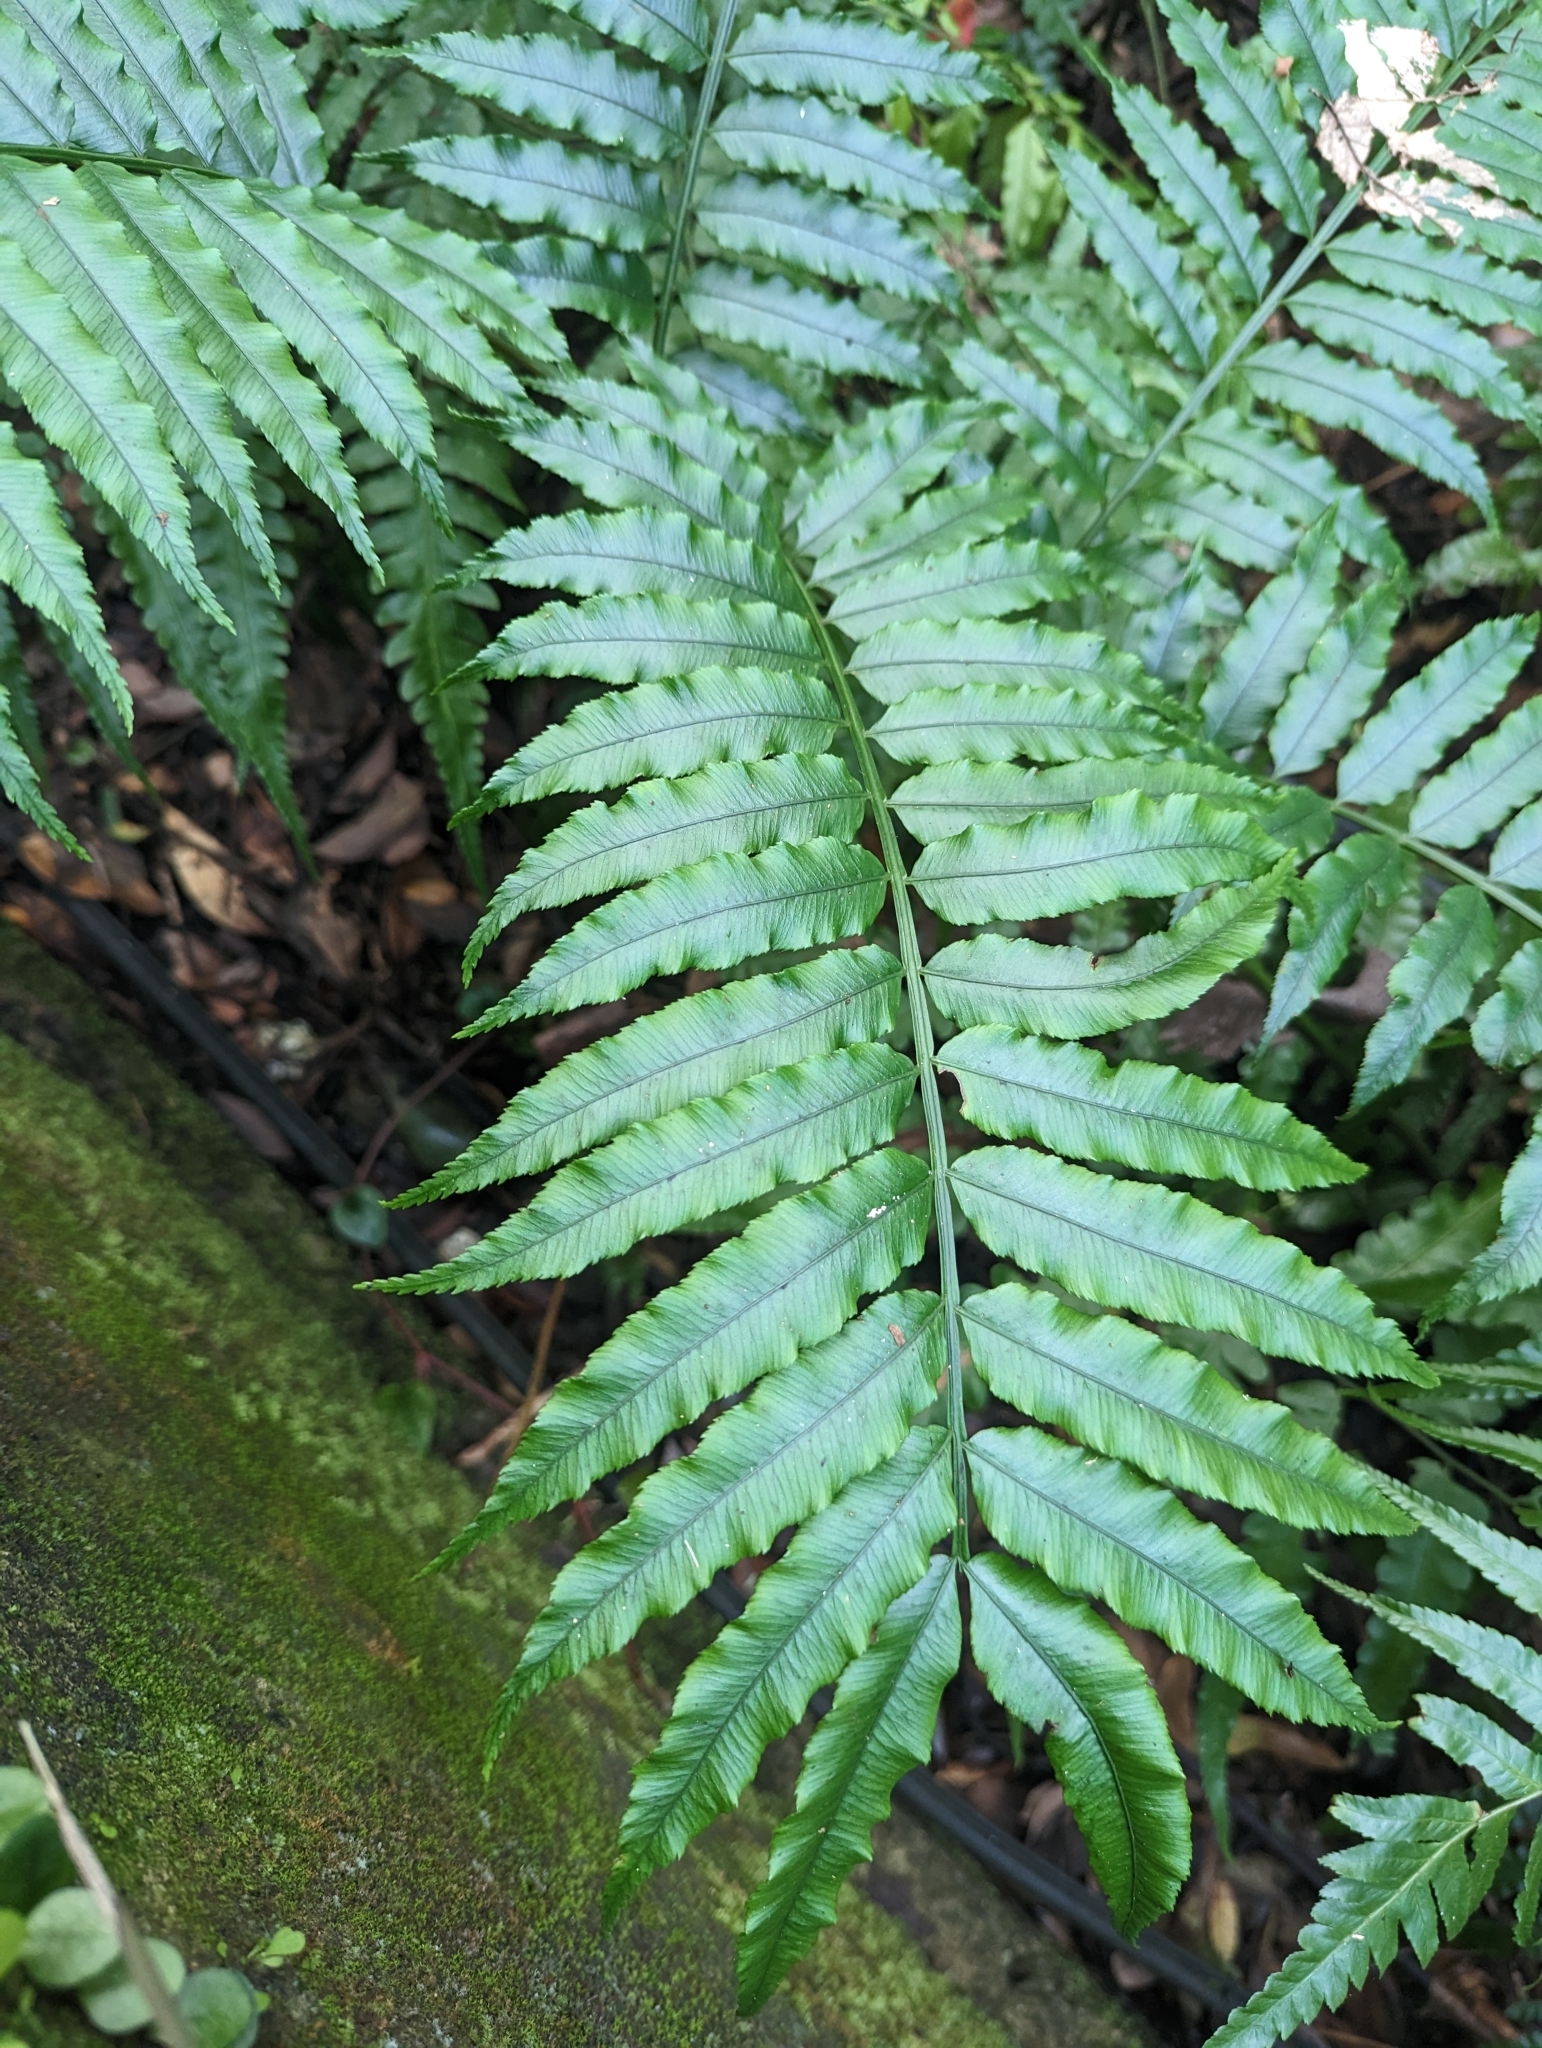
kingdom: Plantae
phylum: Tracheophyta
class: Polypodiopsida
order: Marattiales
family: Marattiaceae
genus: Angiopteris
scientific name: Angiopteris lygodiifolia
